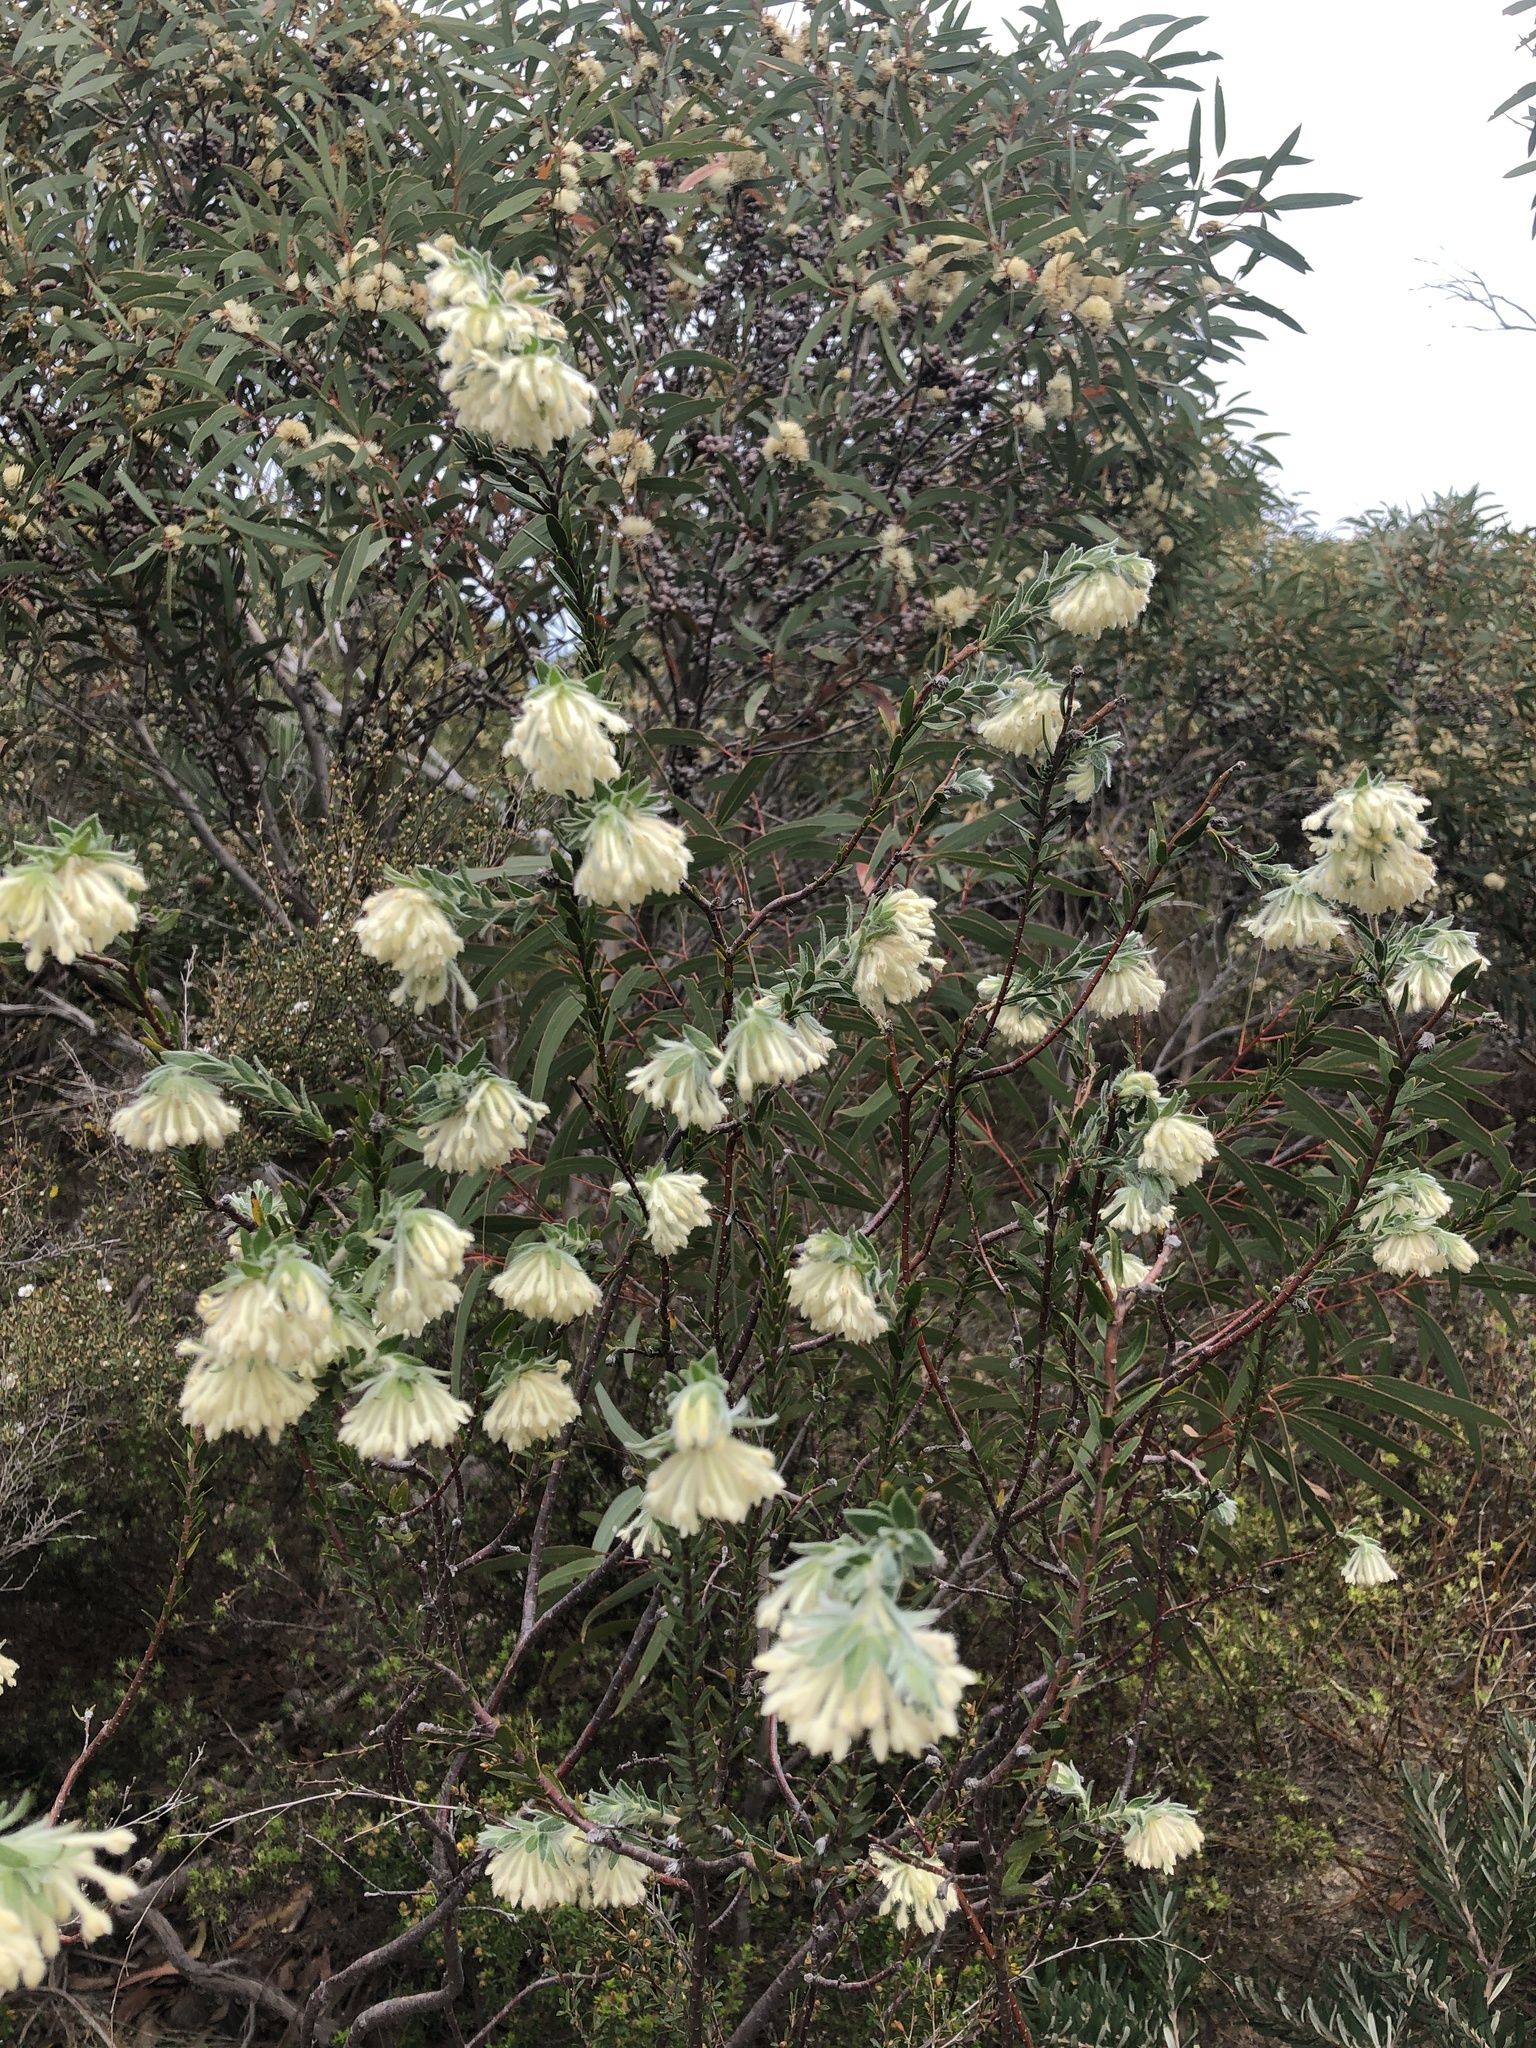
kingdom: Plantae
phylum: Tracheophyta
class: Magnoliopsida
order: Malvales
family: Thymelaeaceae
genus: Pimelea
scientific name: Pimelea octophylla
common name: Woolly riceflower
